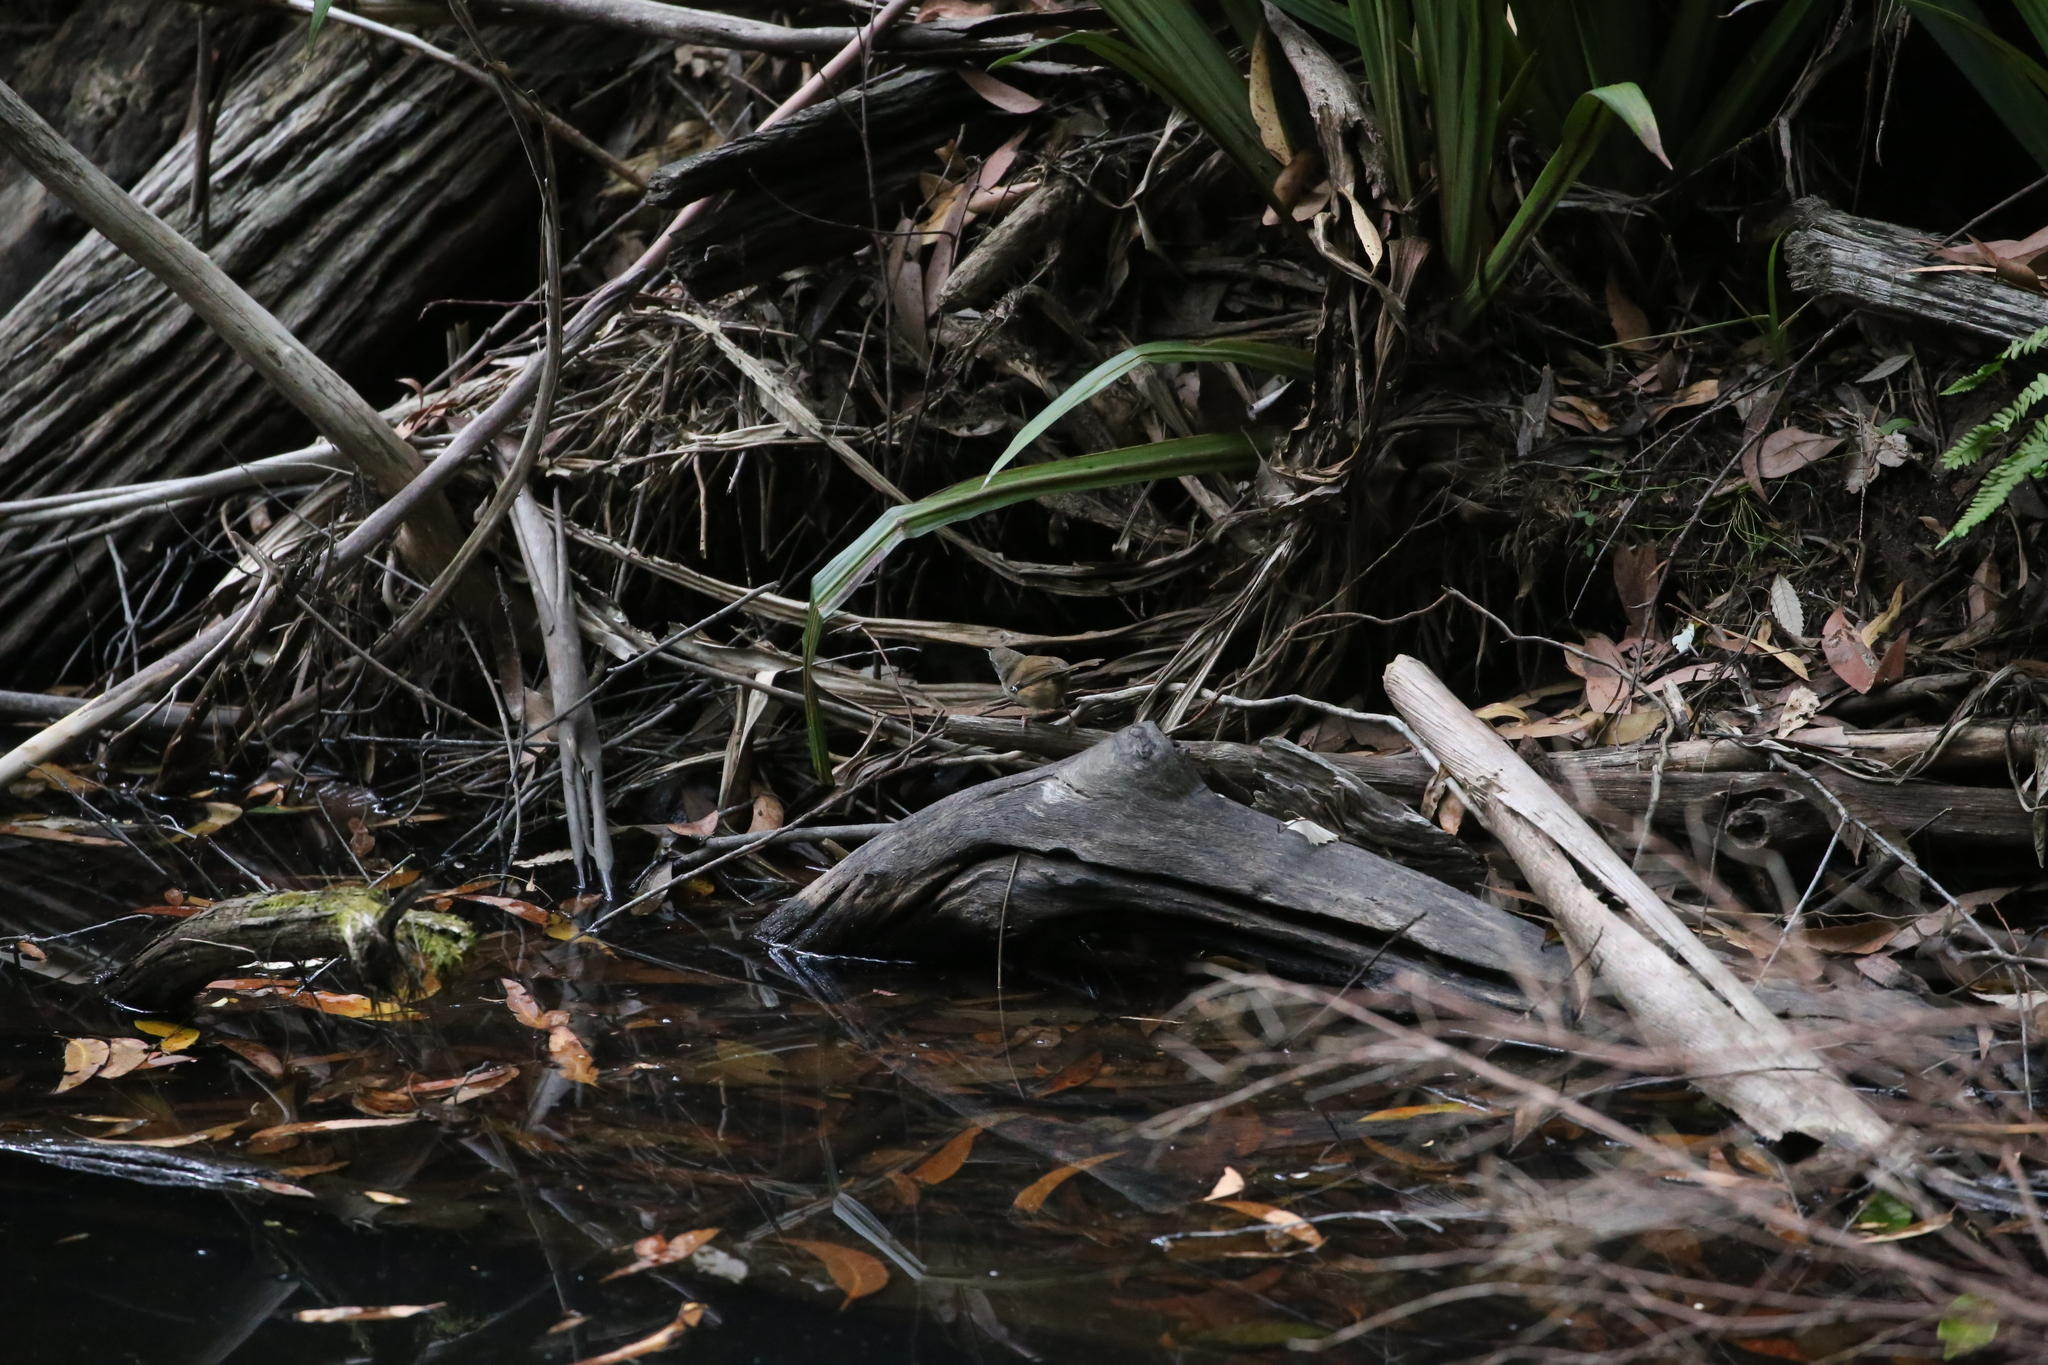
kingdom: Animalia
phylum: Chordata
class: Aves
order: Passeriformes
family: Acanthizidae
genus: Sericornis
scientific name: Sericornis frontalis
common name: White-browed scrubwren
